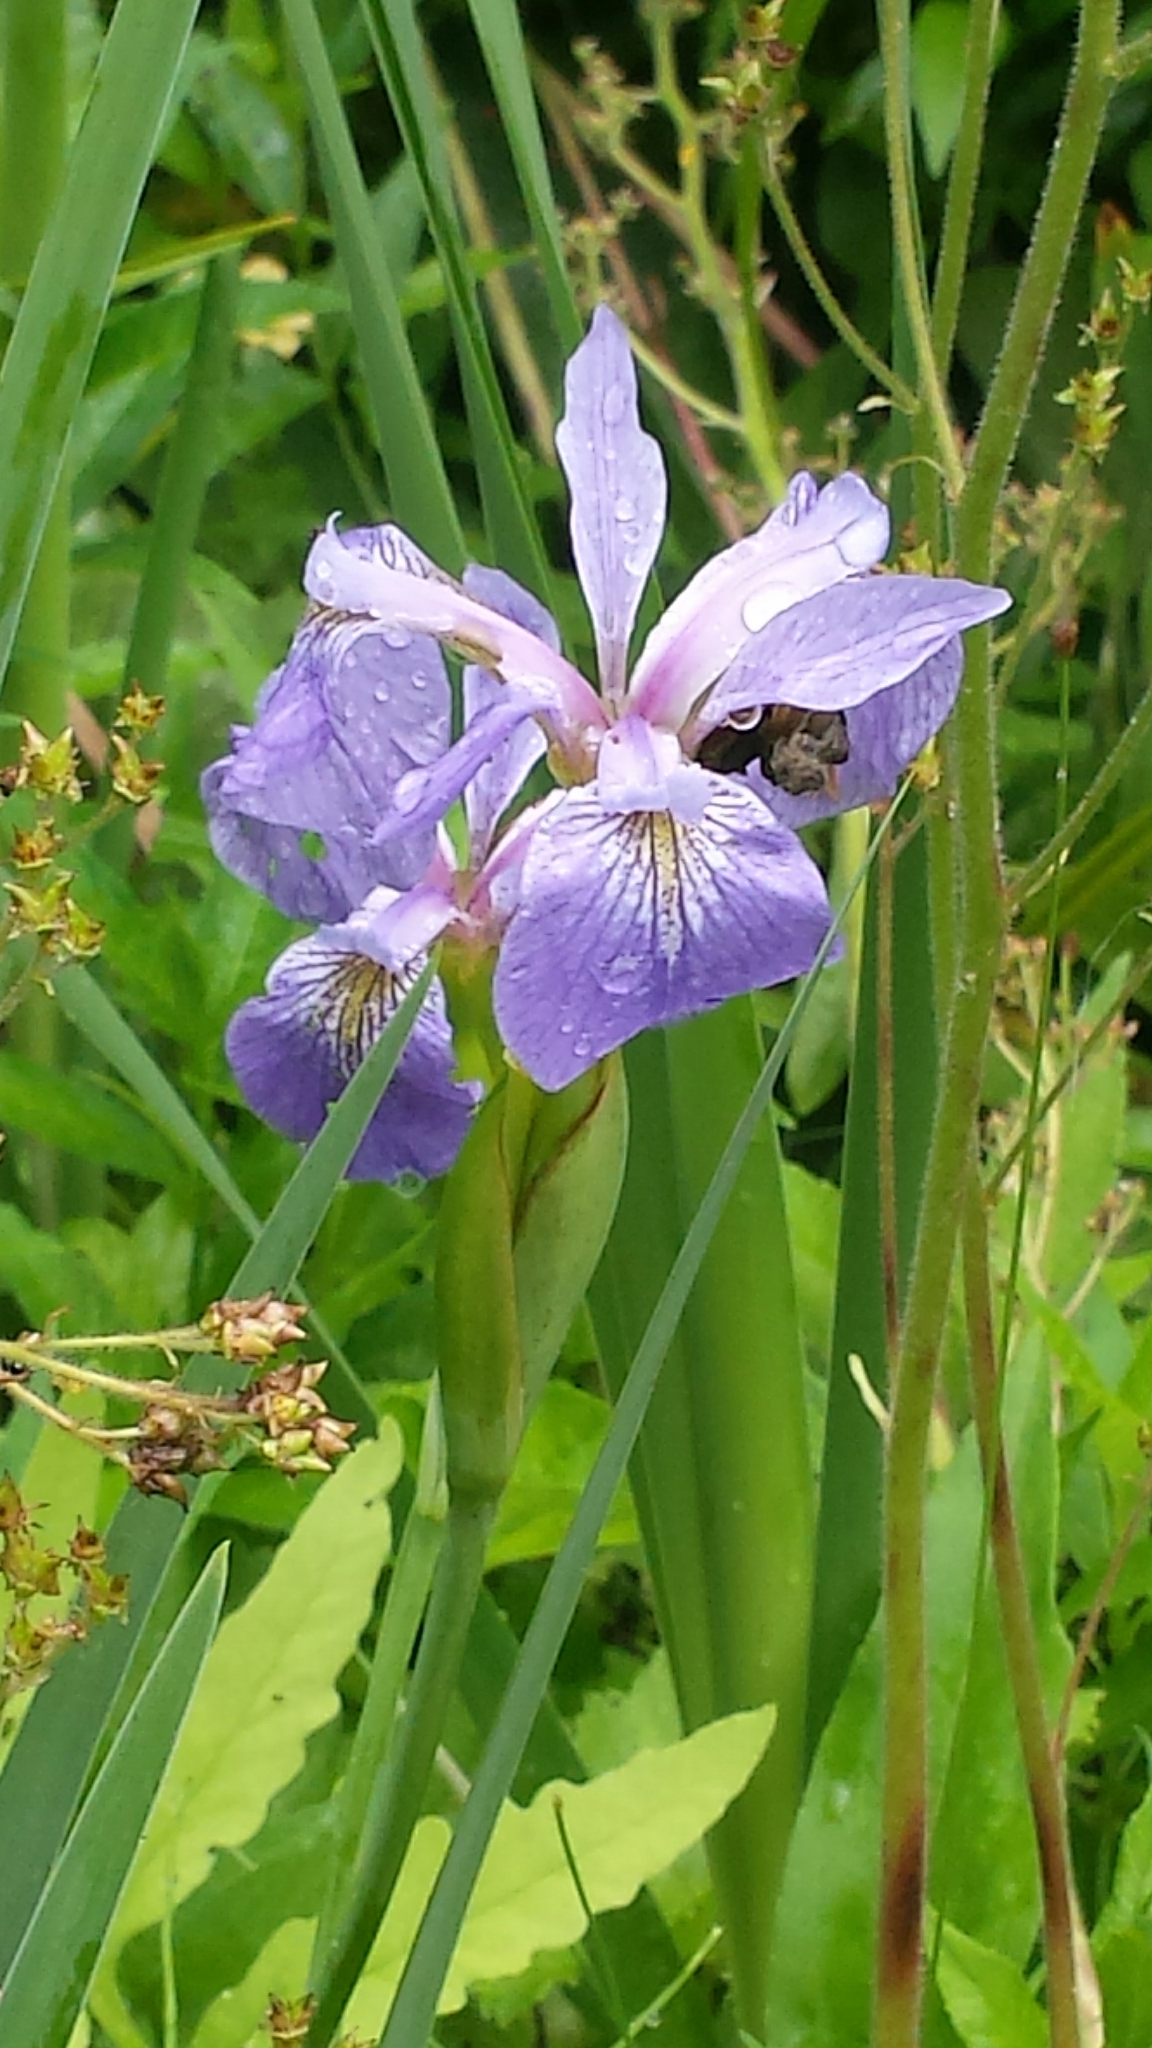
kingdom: Plantae
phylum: Tracheophyta
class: Liliopsida
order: Asparagales
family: Iridaceae
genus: Iris
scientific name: Iris versicolor
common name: Purple iris
